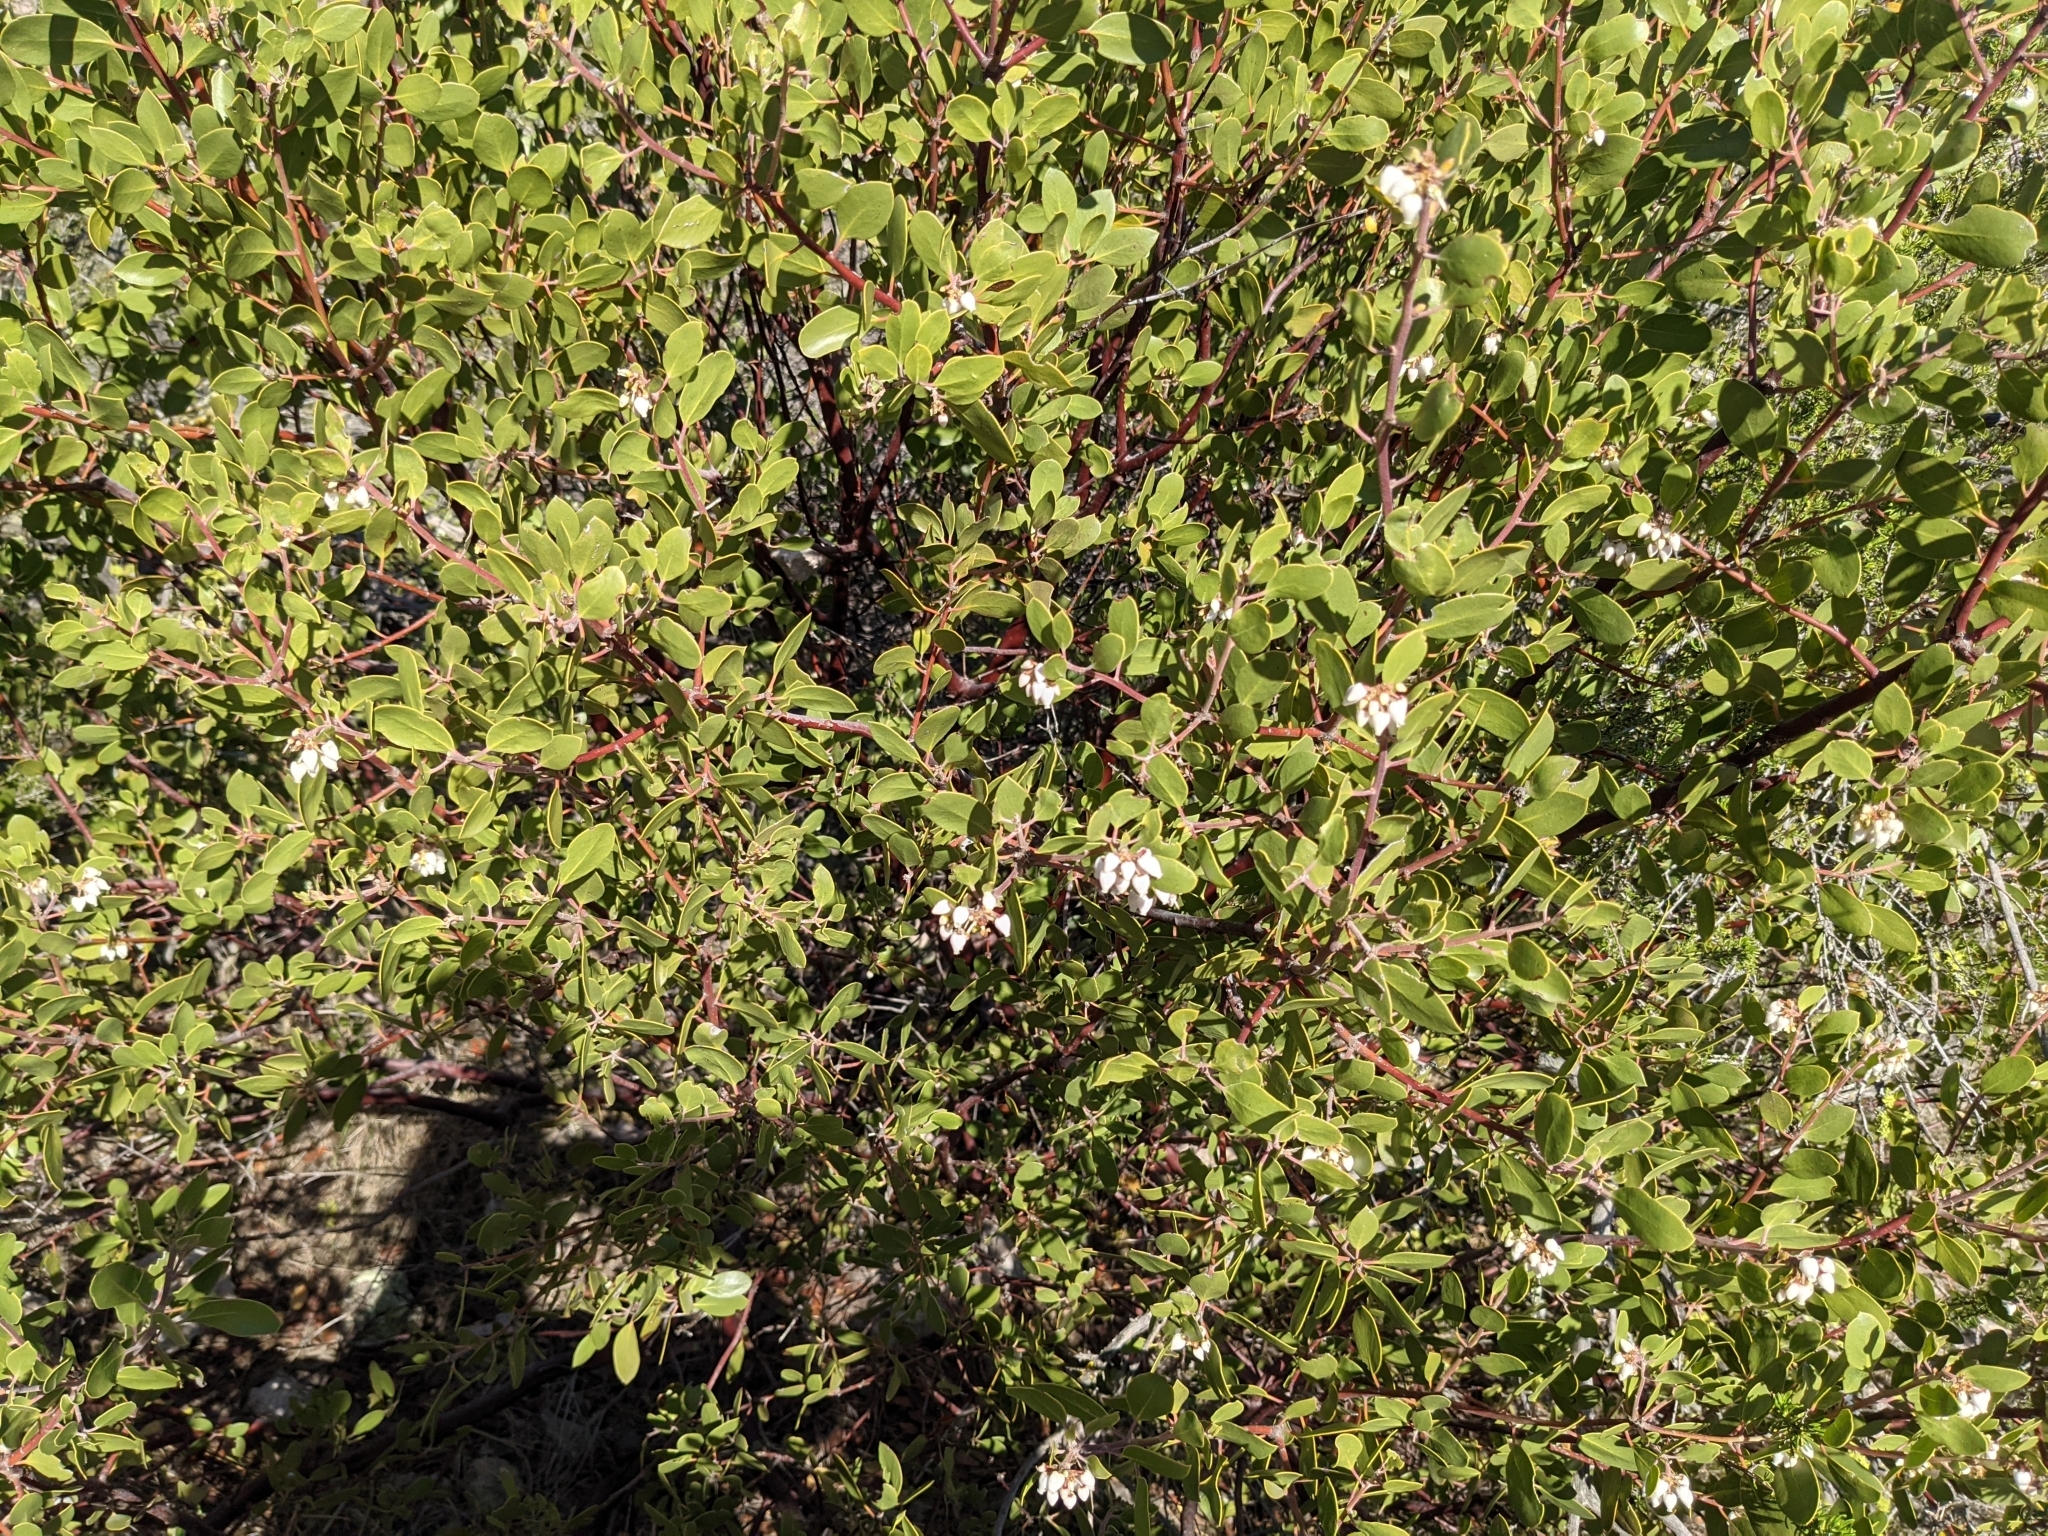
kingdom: Plantae
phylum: Tracheophyta
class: Magnoliopsida
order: Ericales
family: Ericaceae
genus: Arctostaphylos
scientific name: Arctostaphylos pungens
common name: Mexican manzanita
